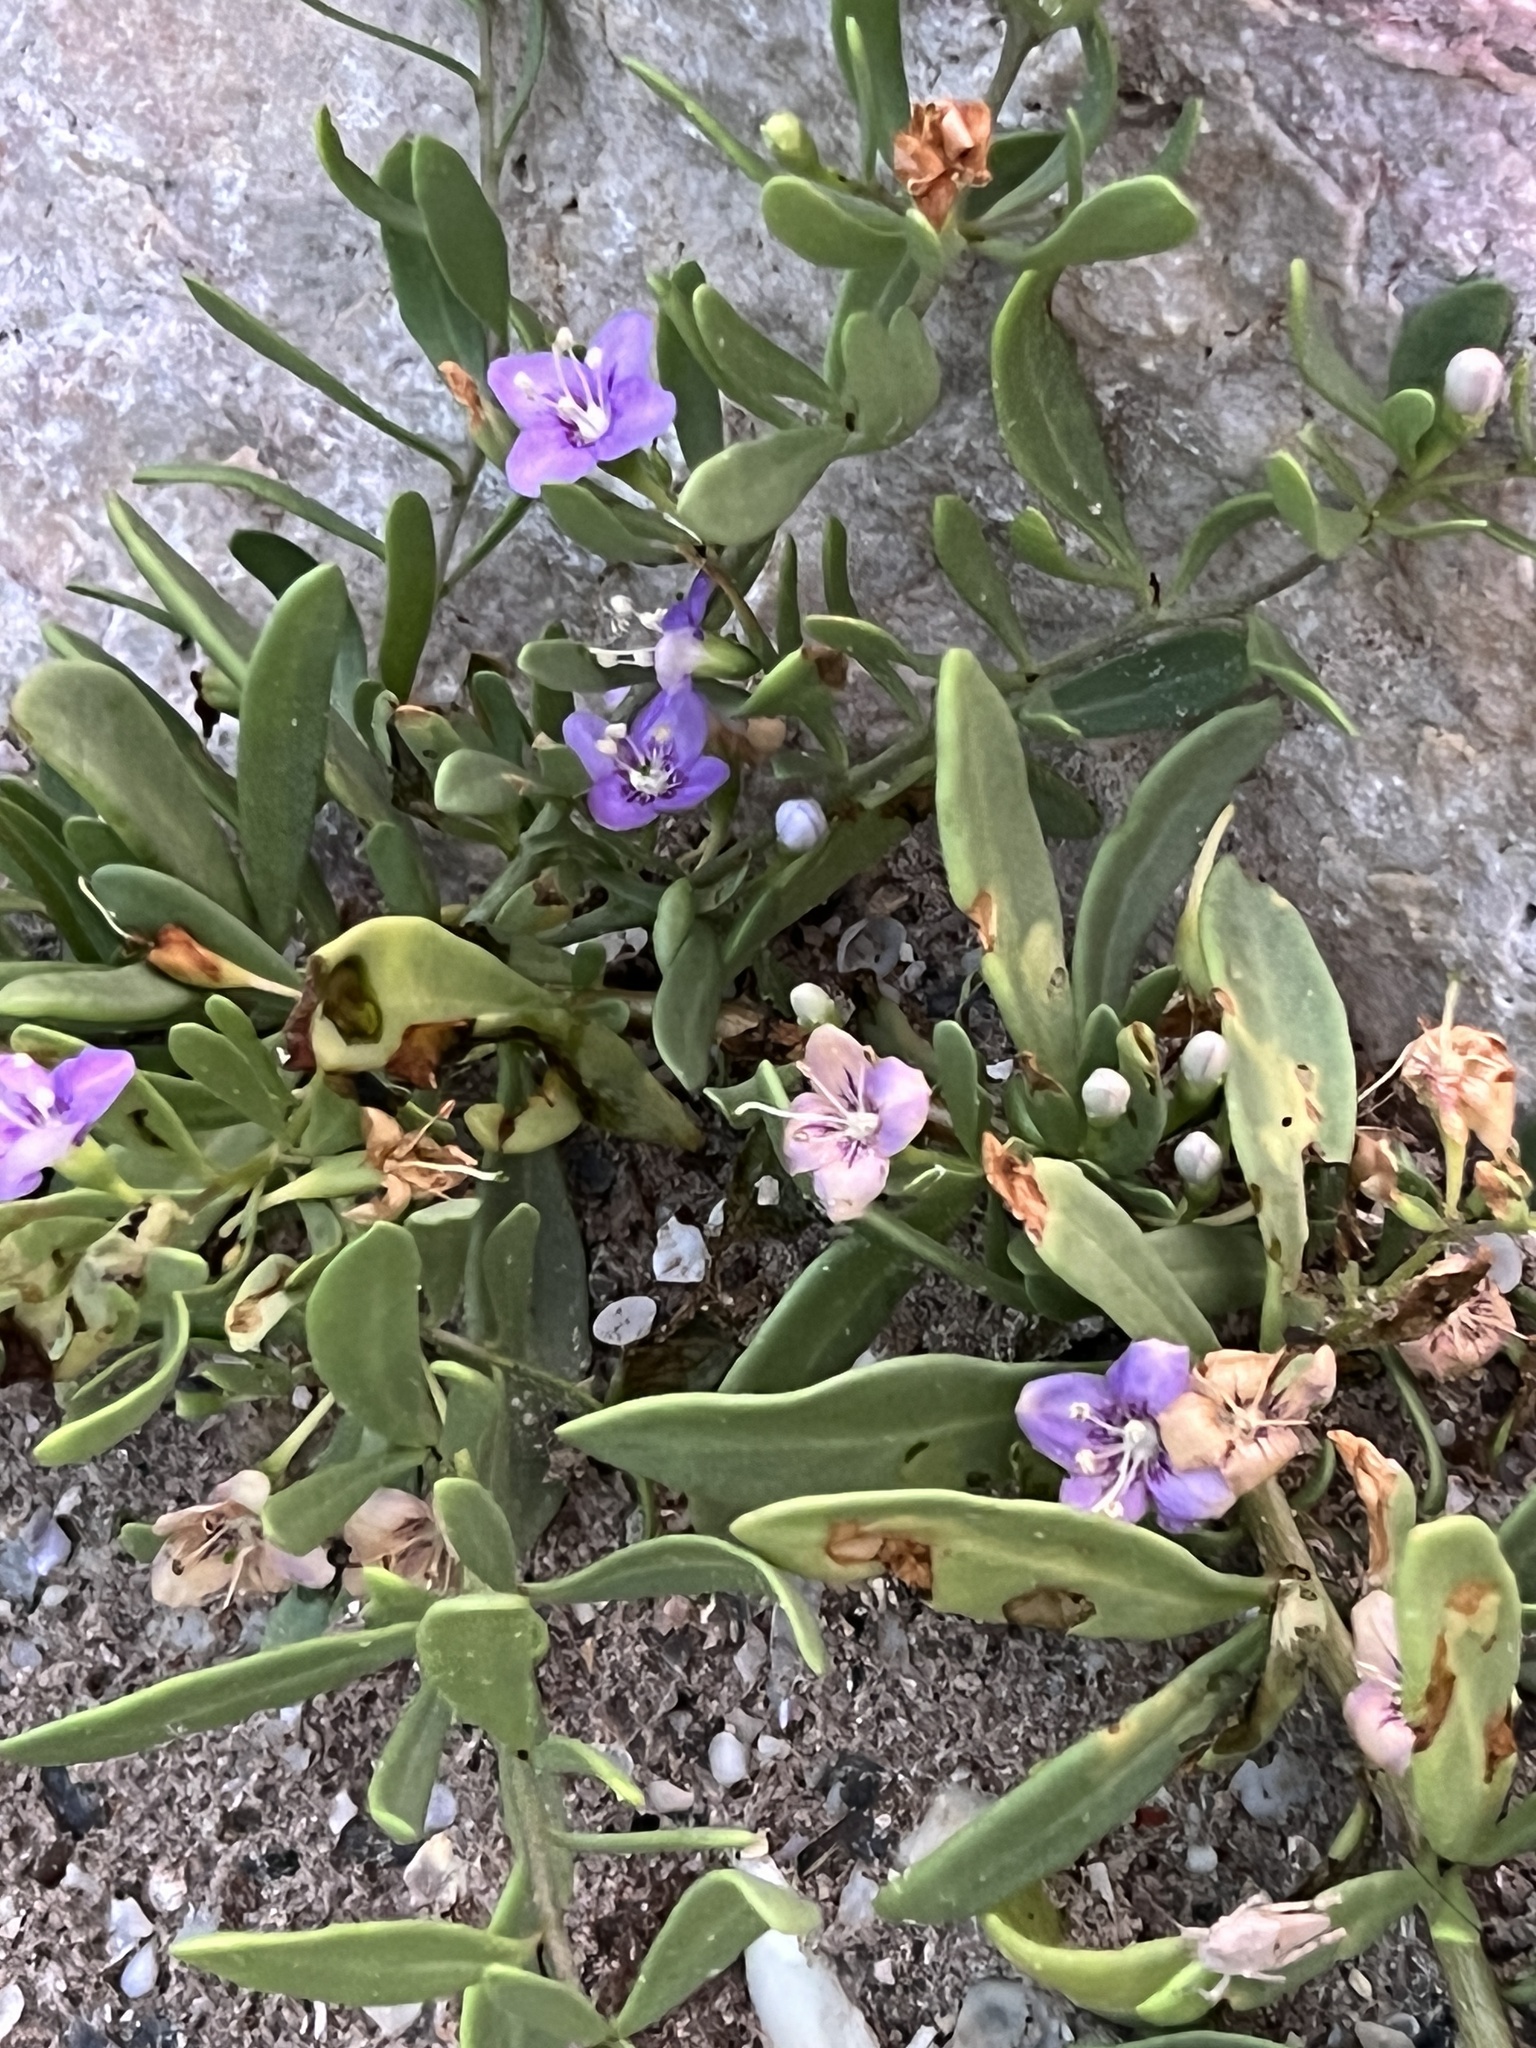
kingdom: Plantae
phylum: Tracheophyta
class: Magnoliopsida
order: Solanales
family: Solanaceae
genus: Lycium
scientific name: Lycium carolinianum
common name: Christmasberry
